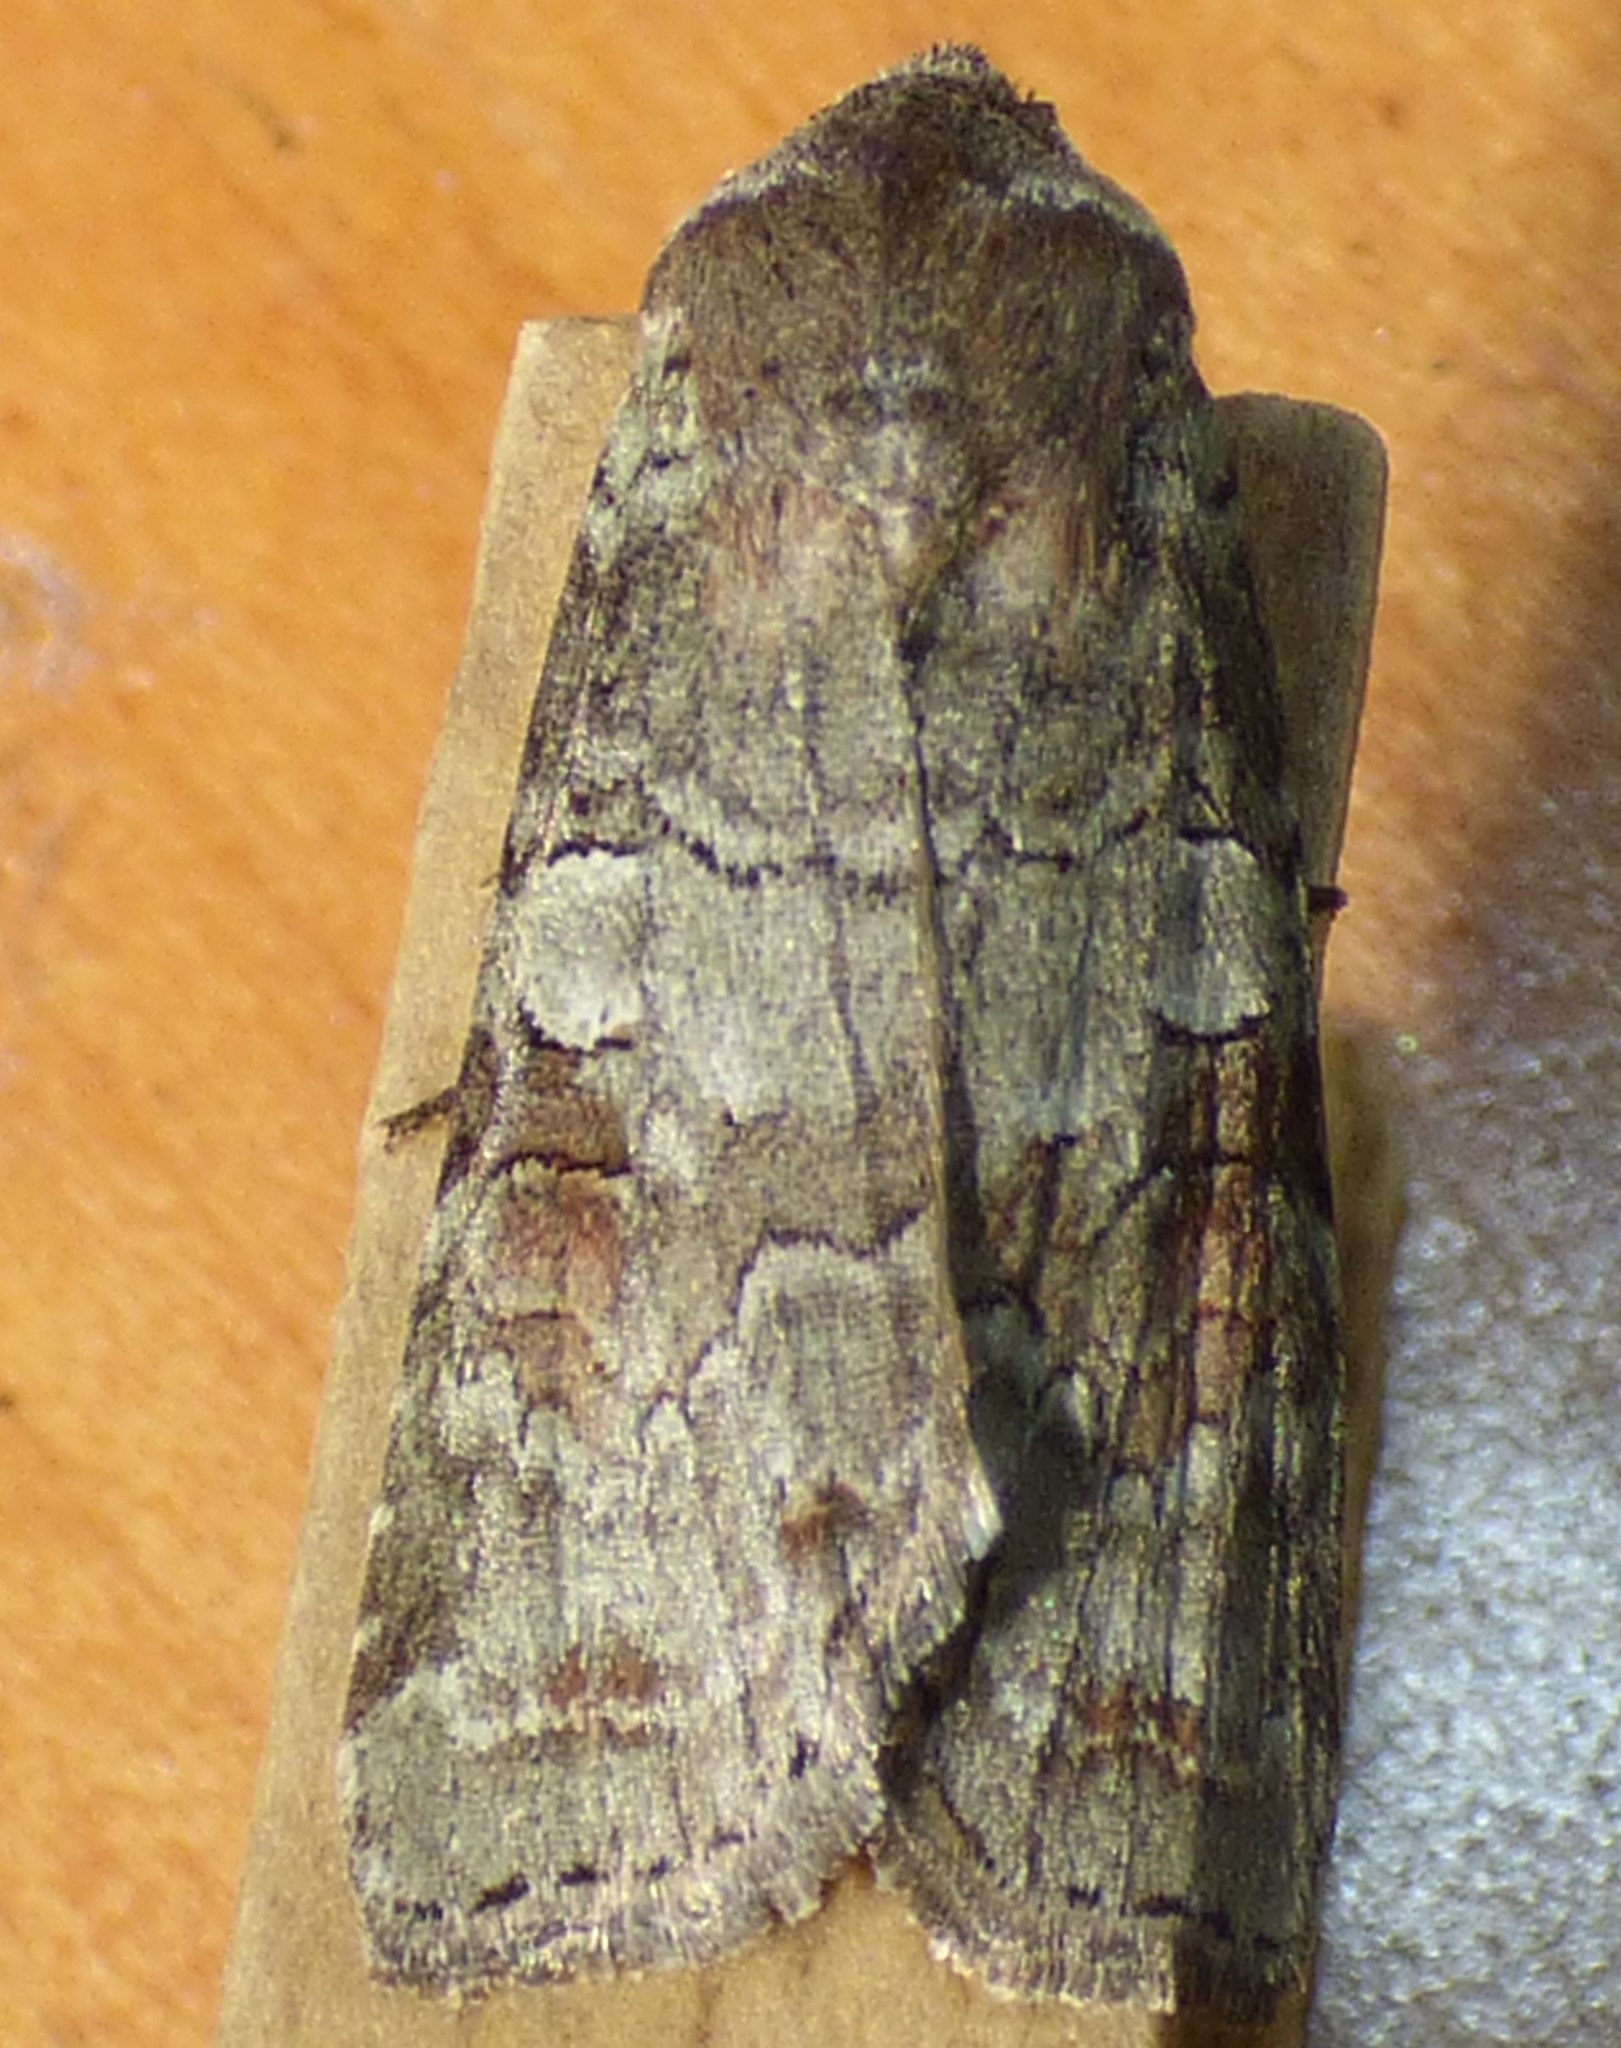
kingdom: Animalia
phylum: Arthropoda
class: Insecta
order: Lepidoptera
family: Noctuidae
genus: Egira
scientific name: Egira alternans
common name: Alternate woodling
